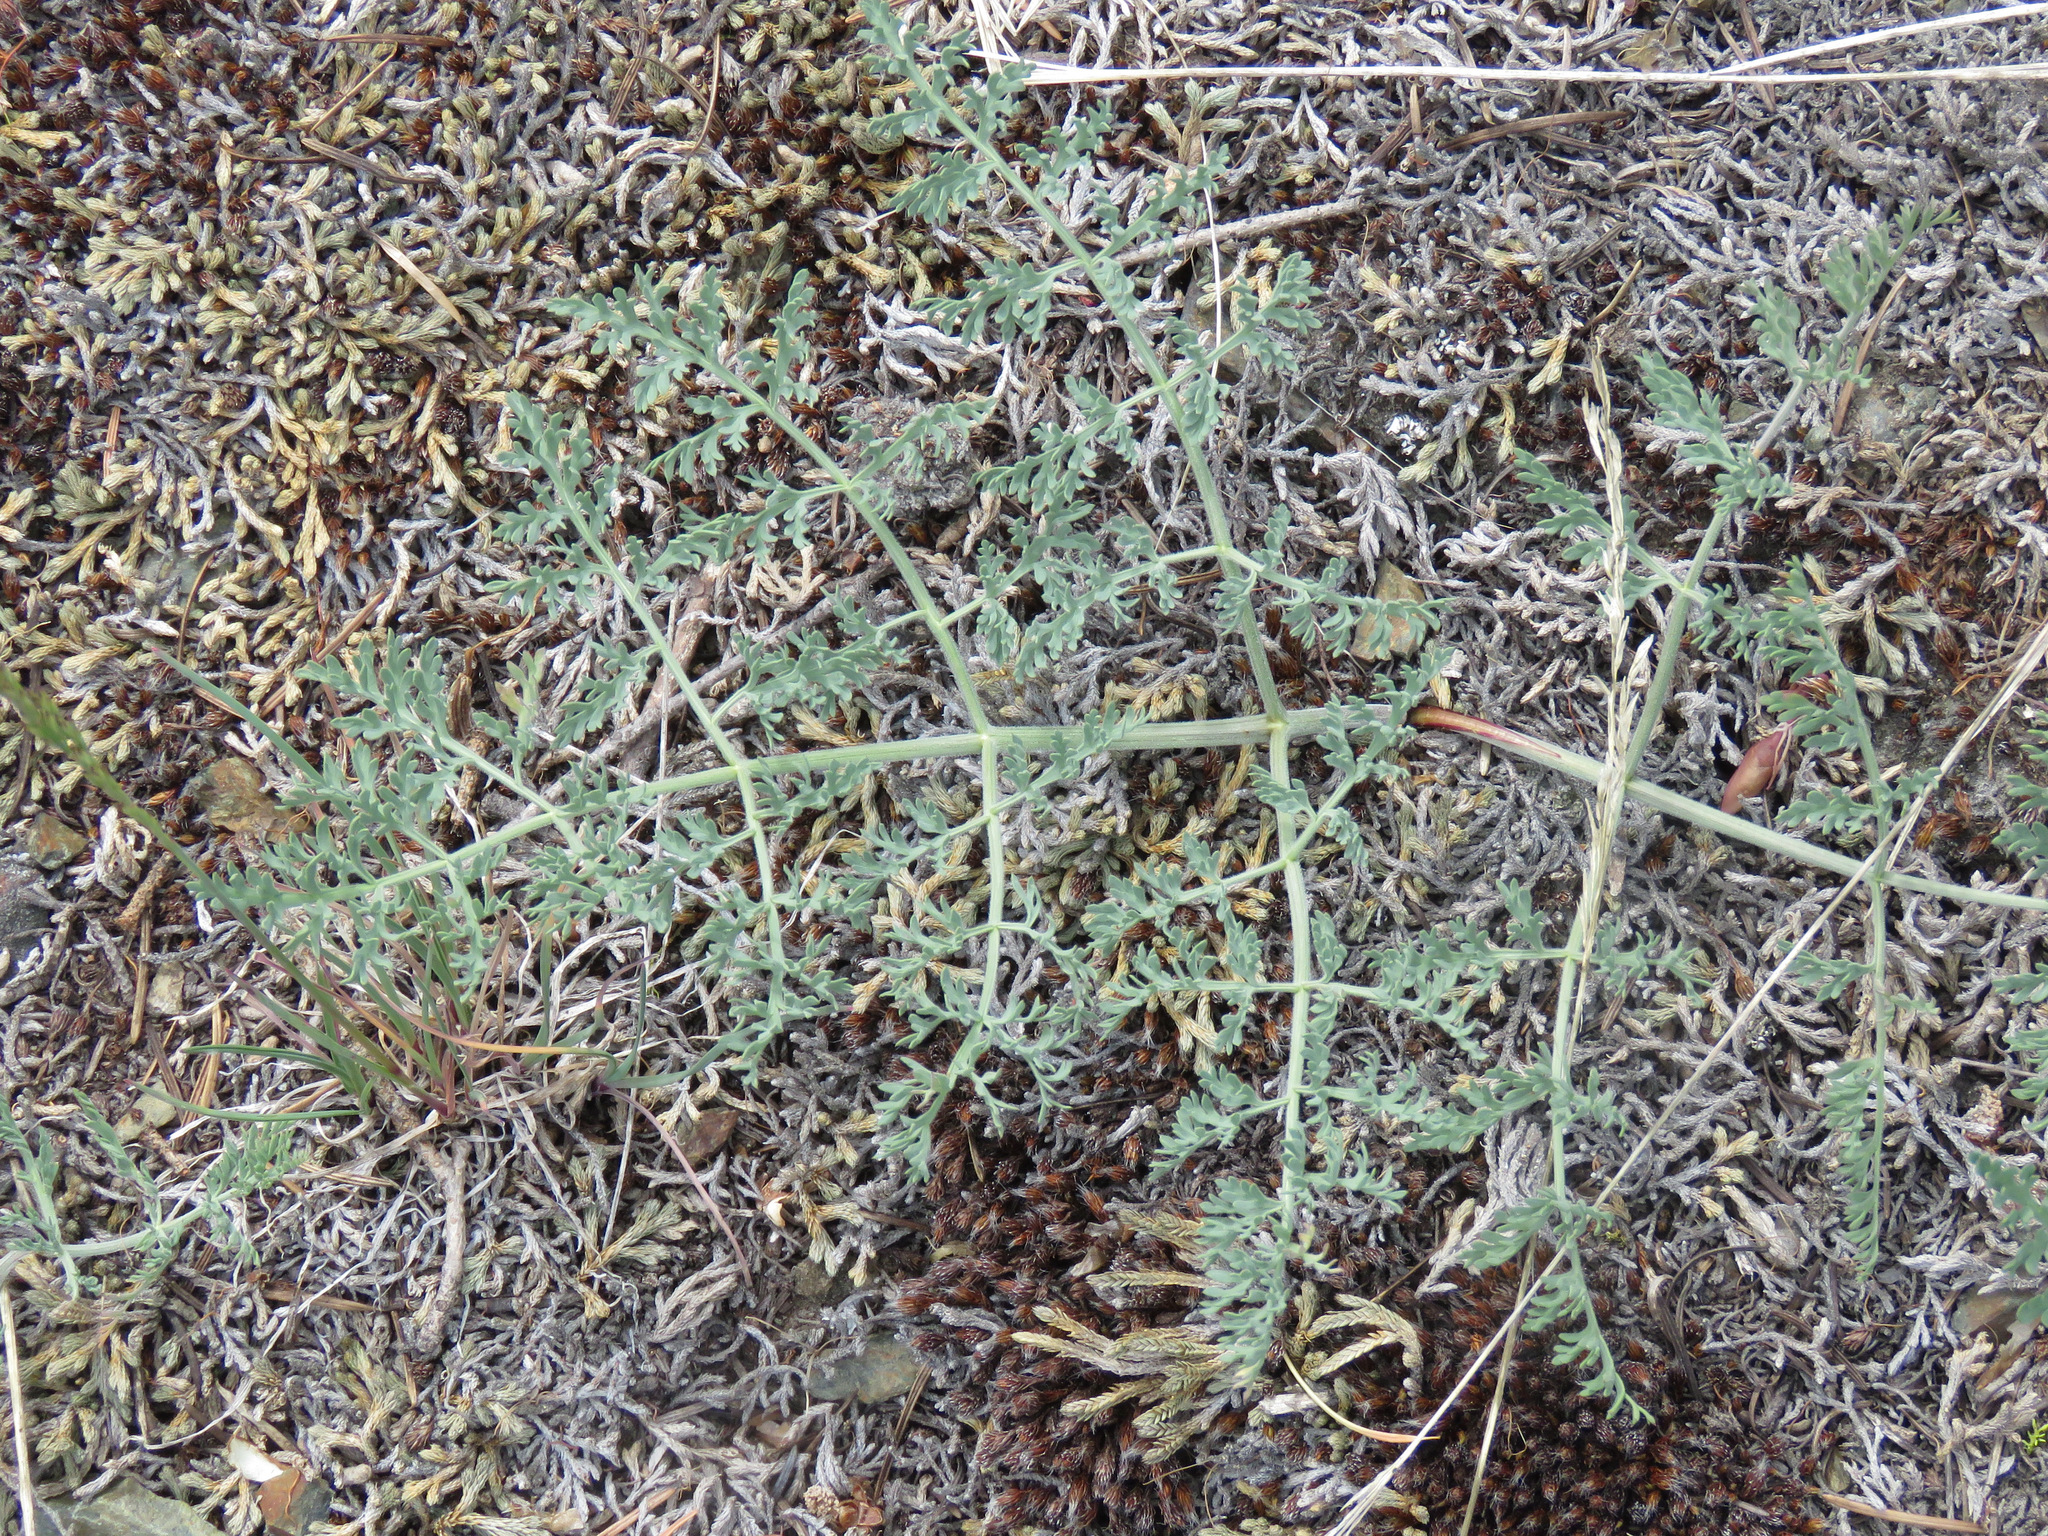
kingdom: Plantae
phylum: Tracheophyta
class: Magnoliopsida
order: Apiales
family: Apiaceae
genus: Lomatium
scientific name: Lomatium macrocarpum
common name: Big-seed biscuitroot
